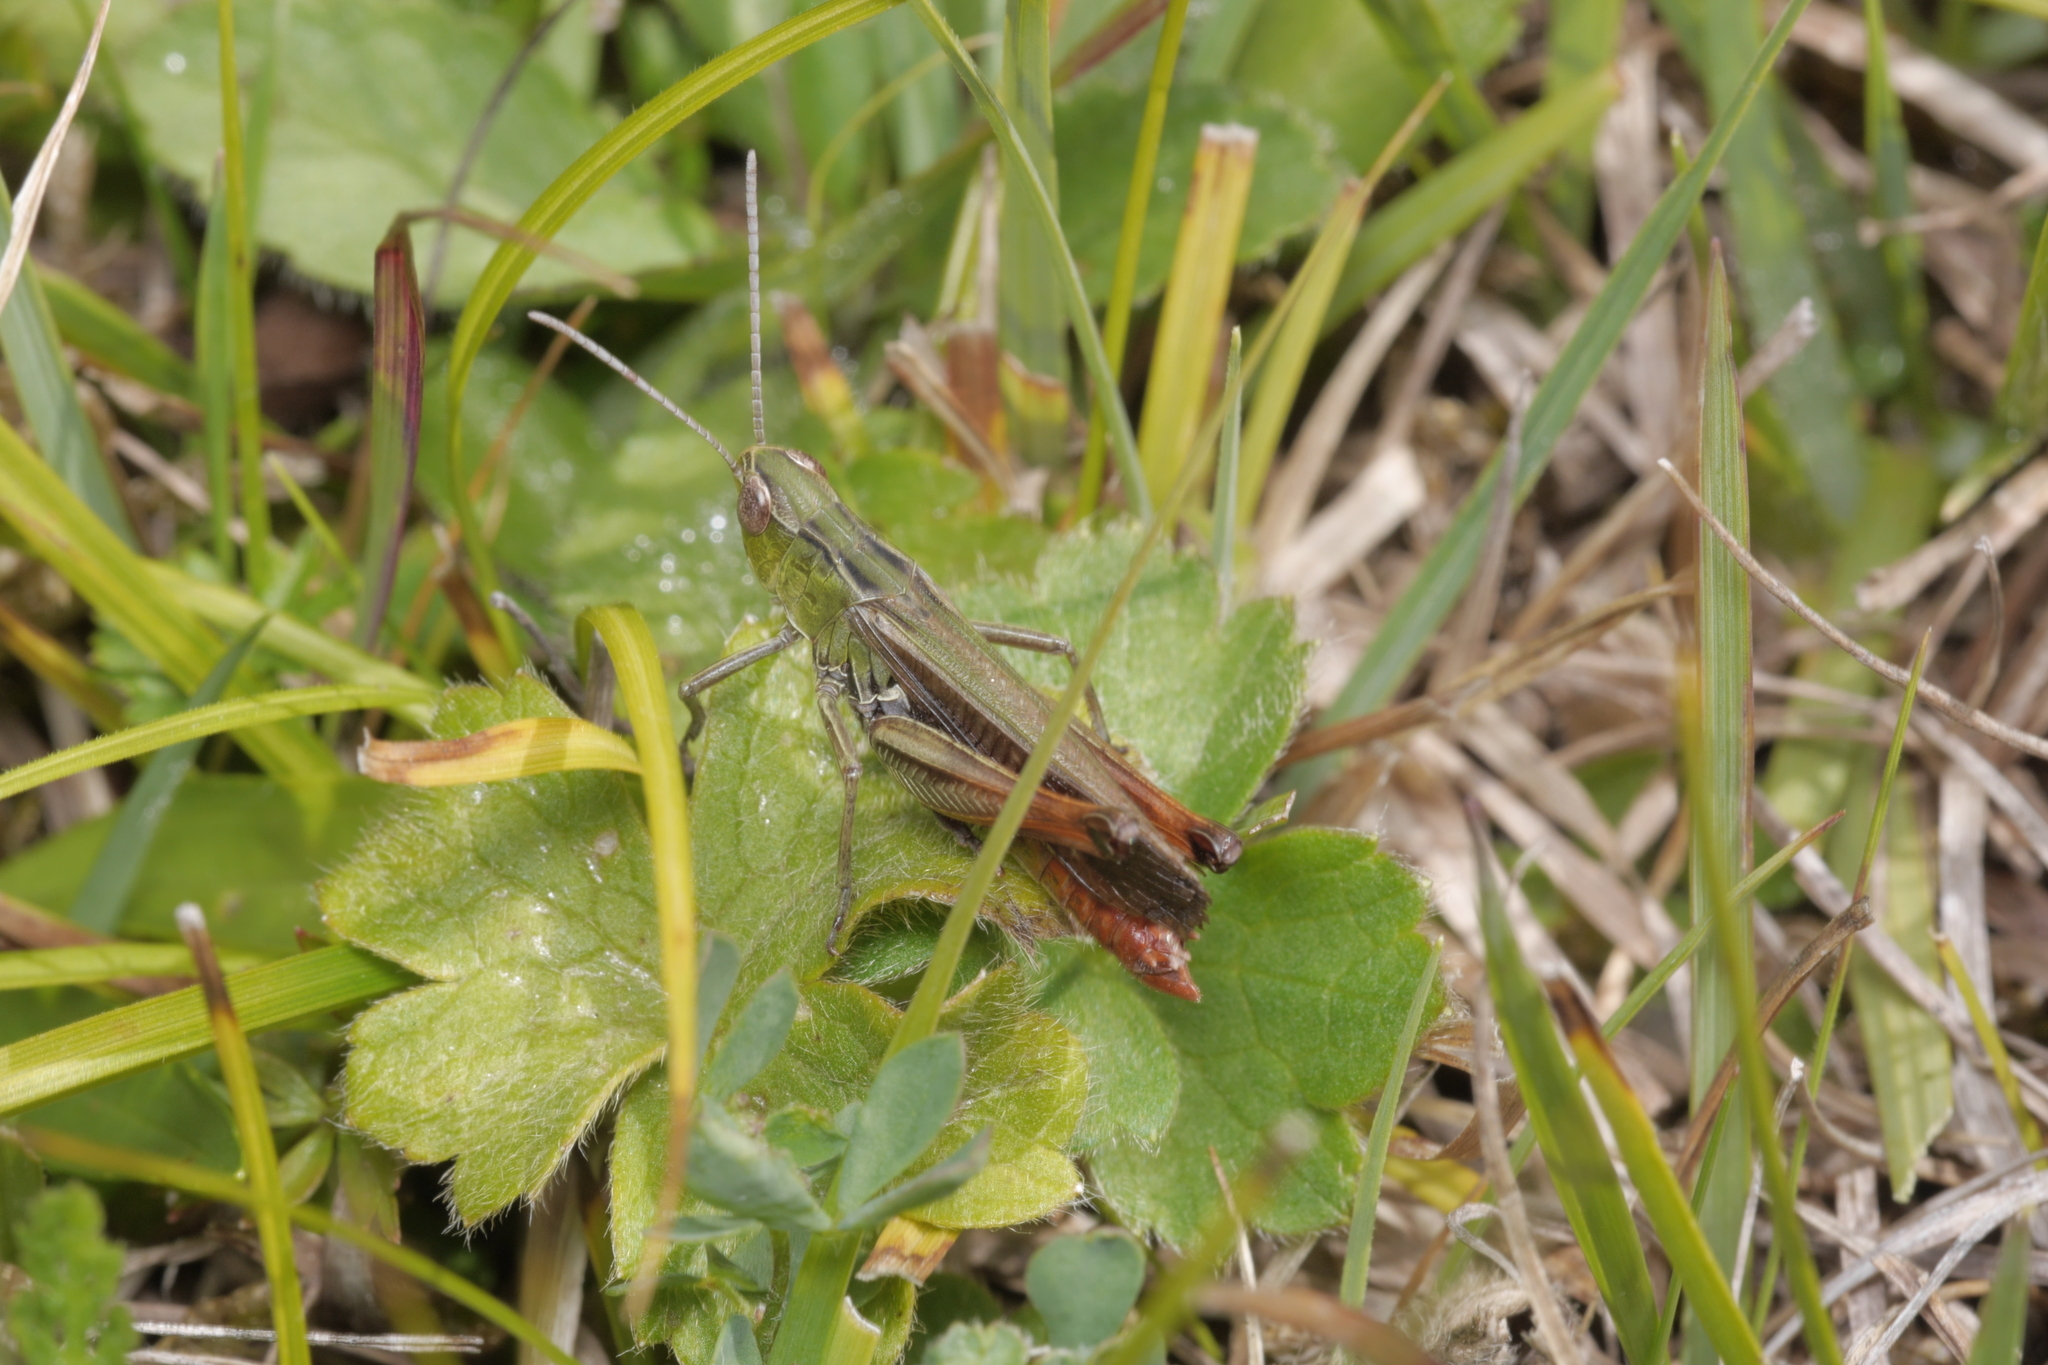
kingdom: Animalia
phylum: Arthropoda
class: Insecta
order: Orthoptera
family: Acrididae
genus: Stenobothrus
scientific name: Stenobothrus lineatus
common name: Stripe-winged grasshopper
